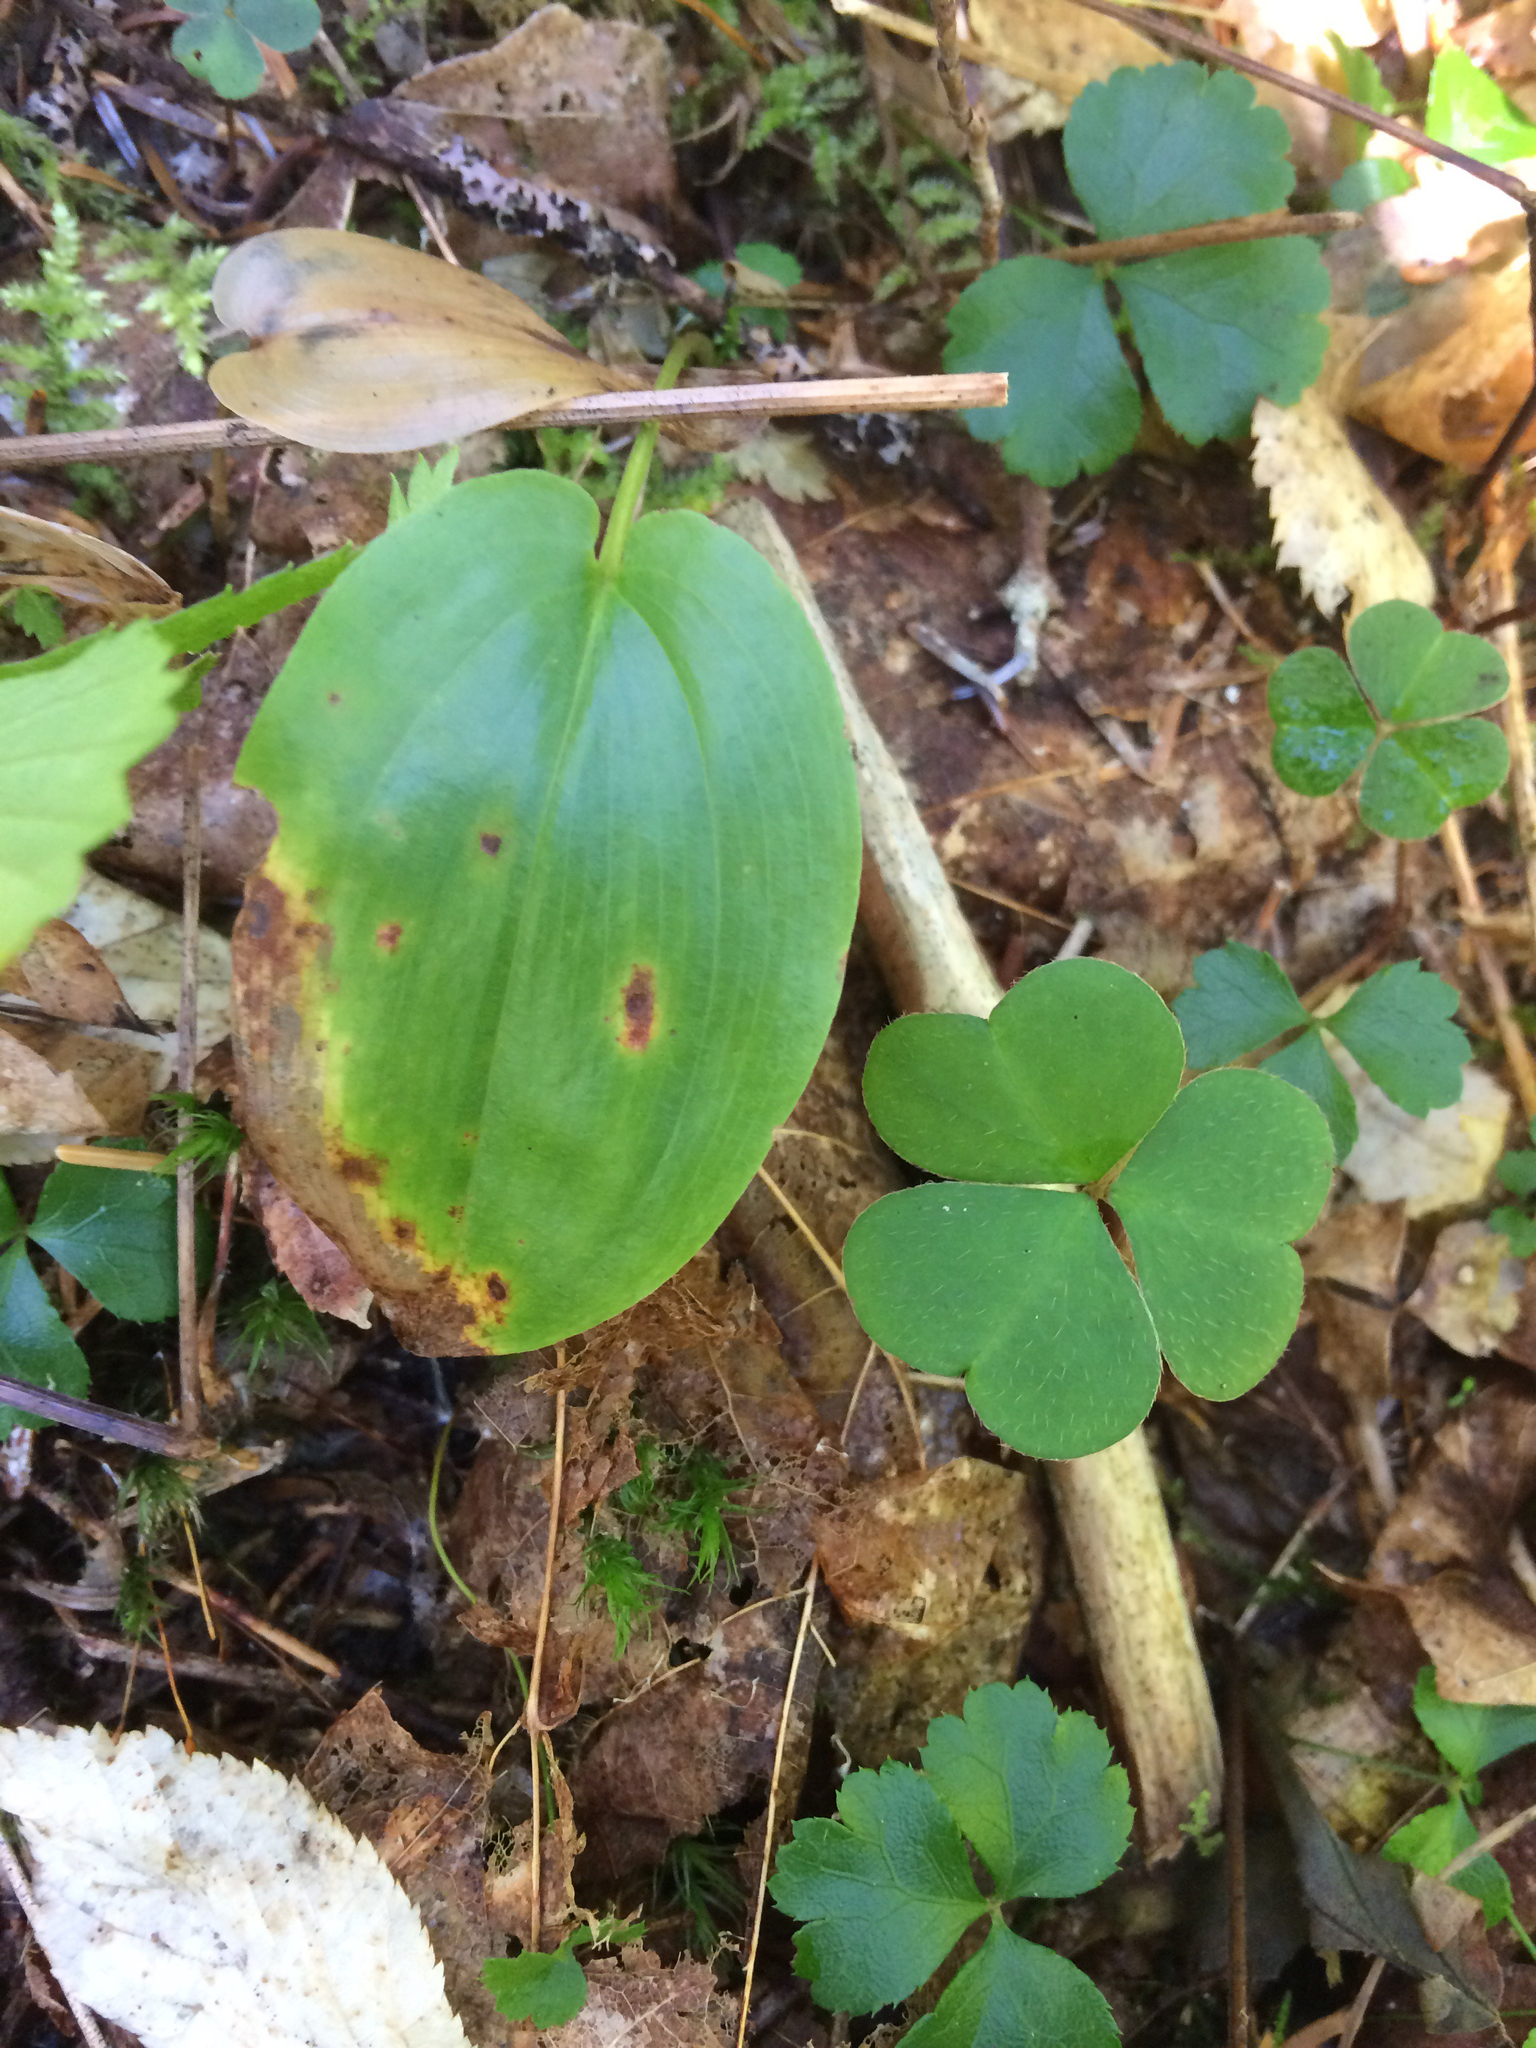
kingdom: Plantae
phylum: Tracheophyta
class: Liliopsida
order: Asparagales
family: Asparagaceae
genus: Maianthemum
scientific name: Maianthemum canadense
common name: False lily-of-the-valley
